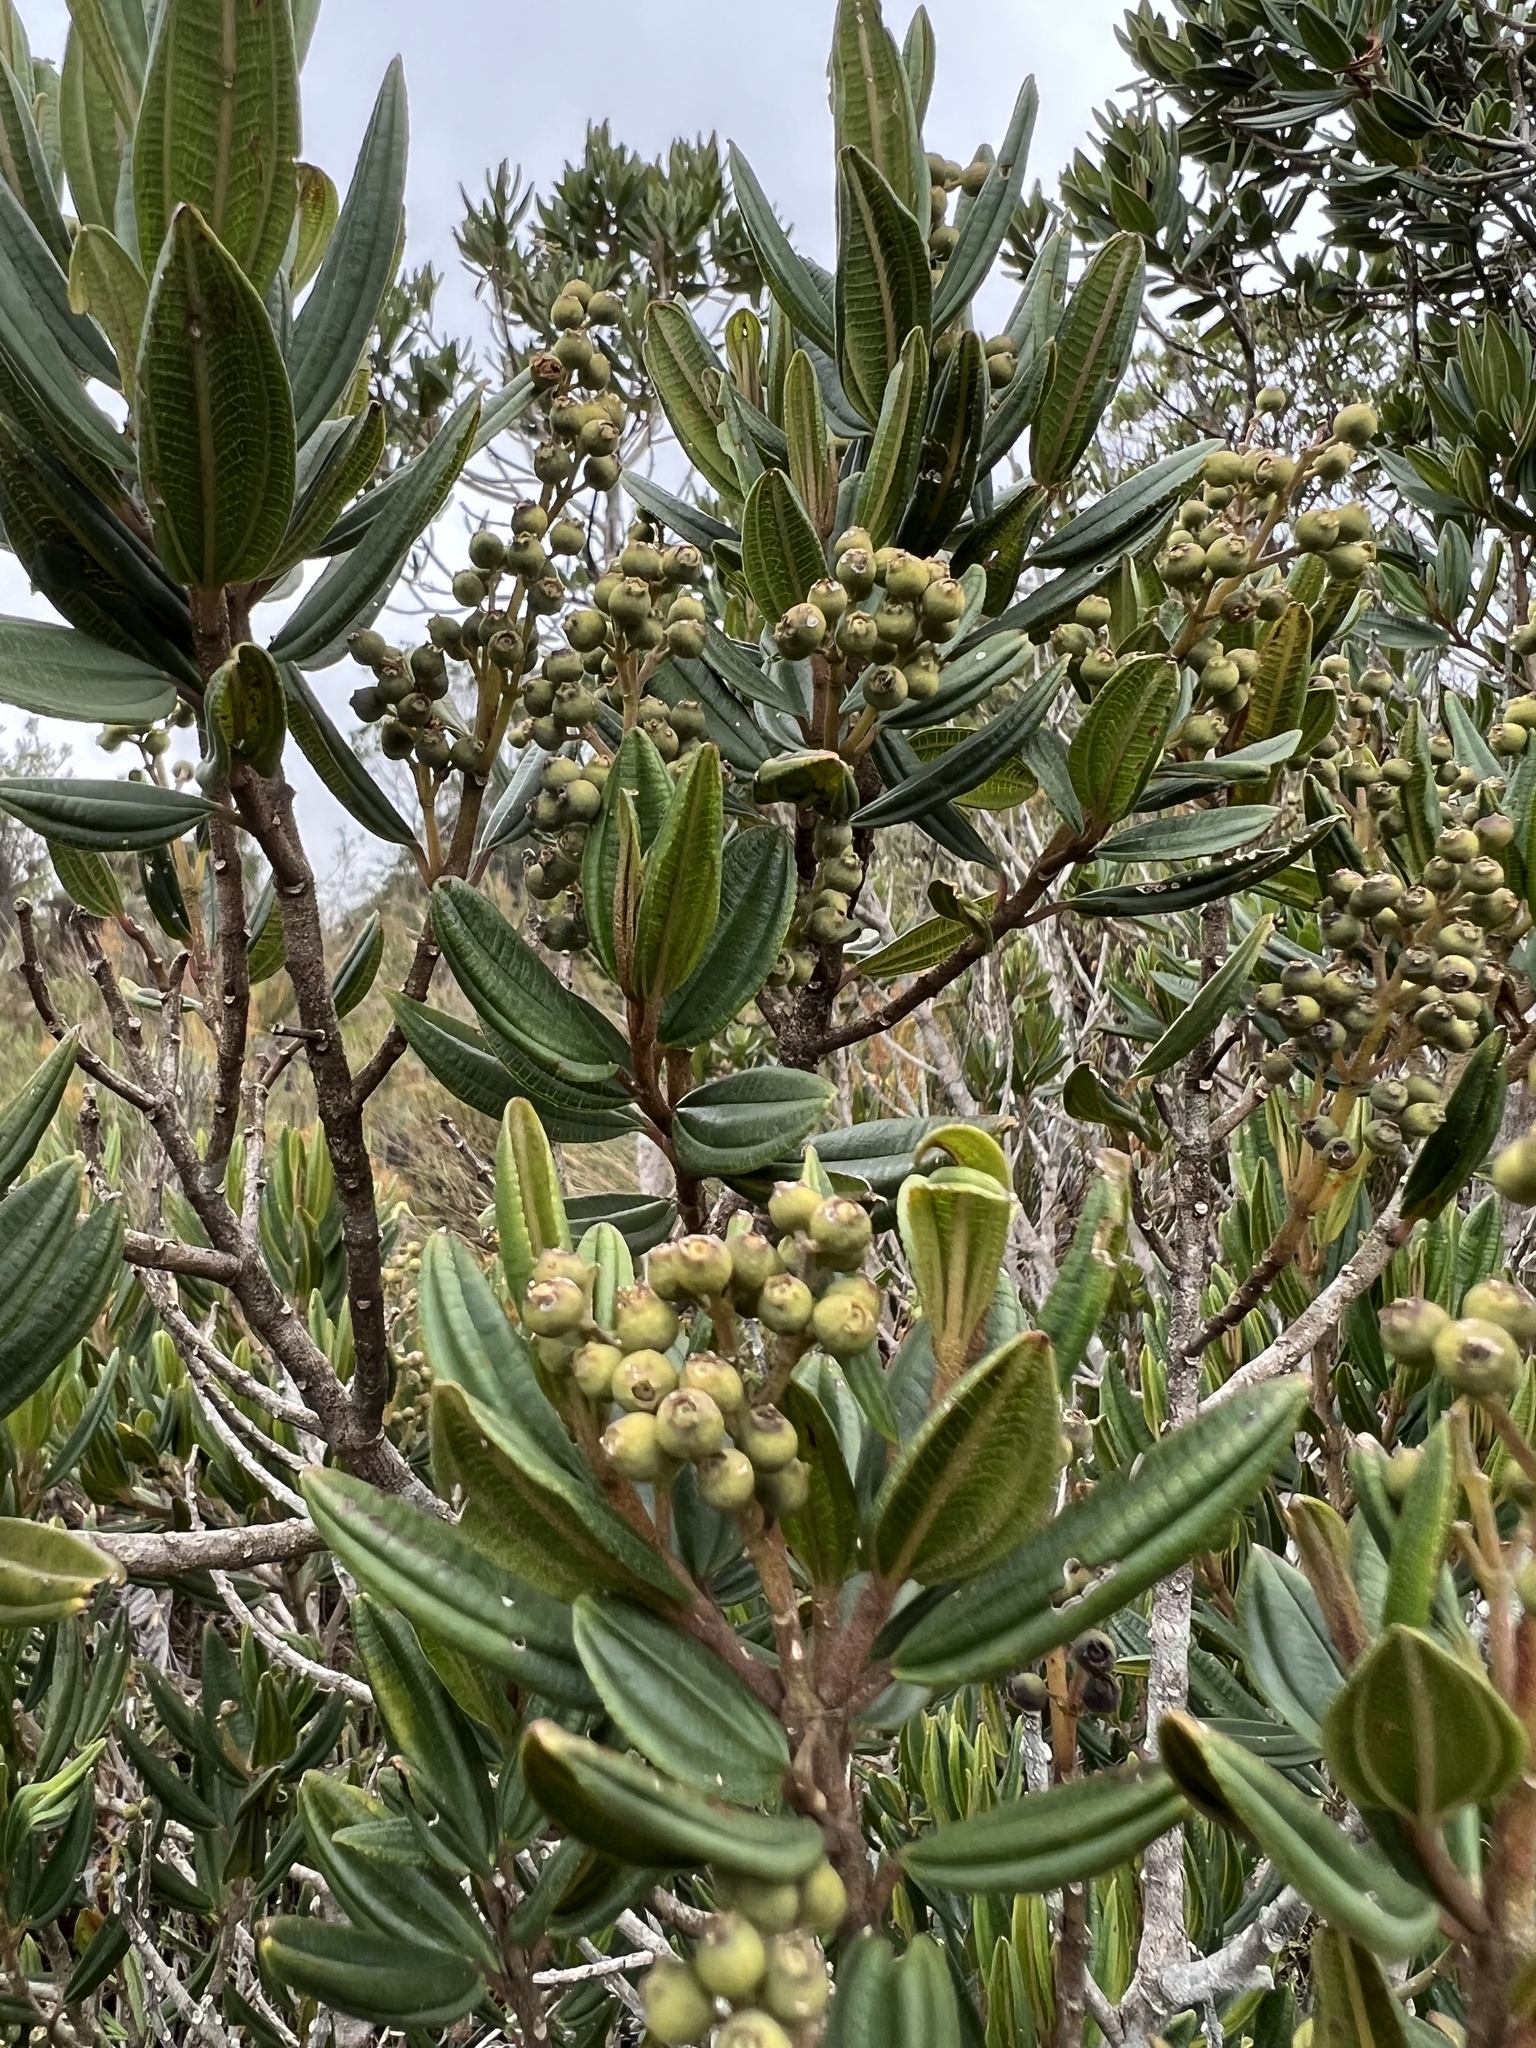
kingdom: Plantae
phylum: Tracheophyta
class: Magnoliopsida
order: Myrtales
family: Melastomataceae
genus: Miconia
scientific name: Miconia elaeoides
